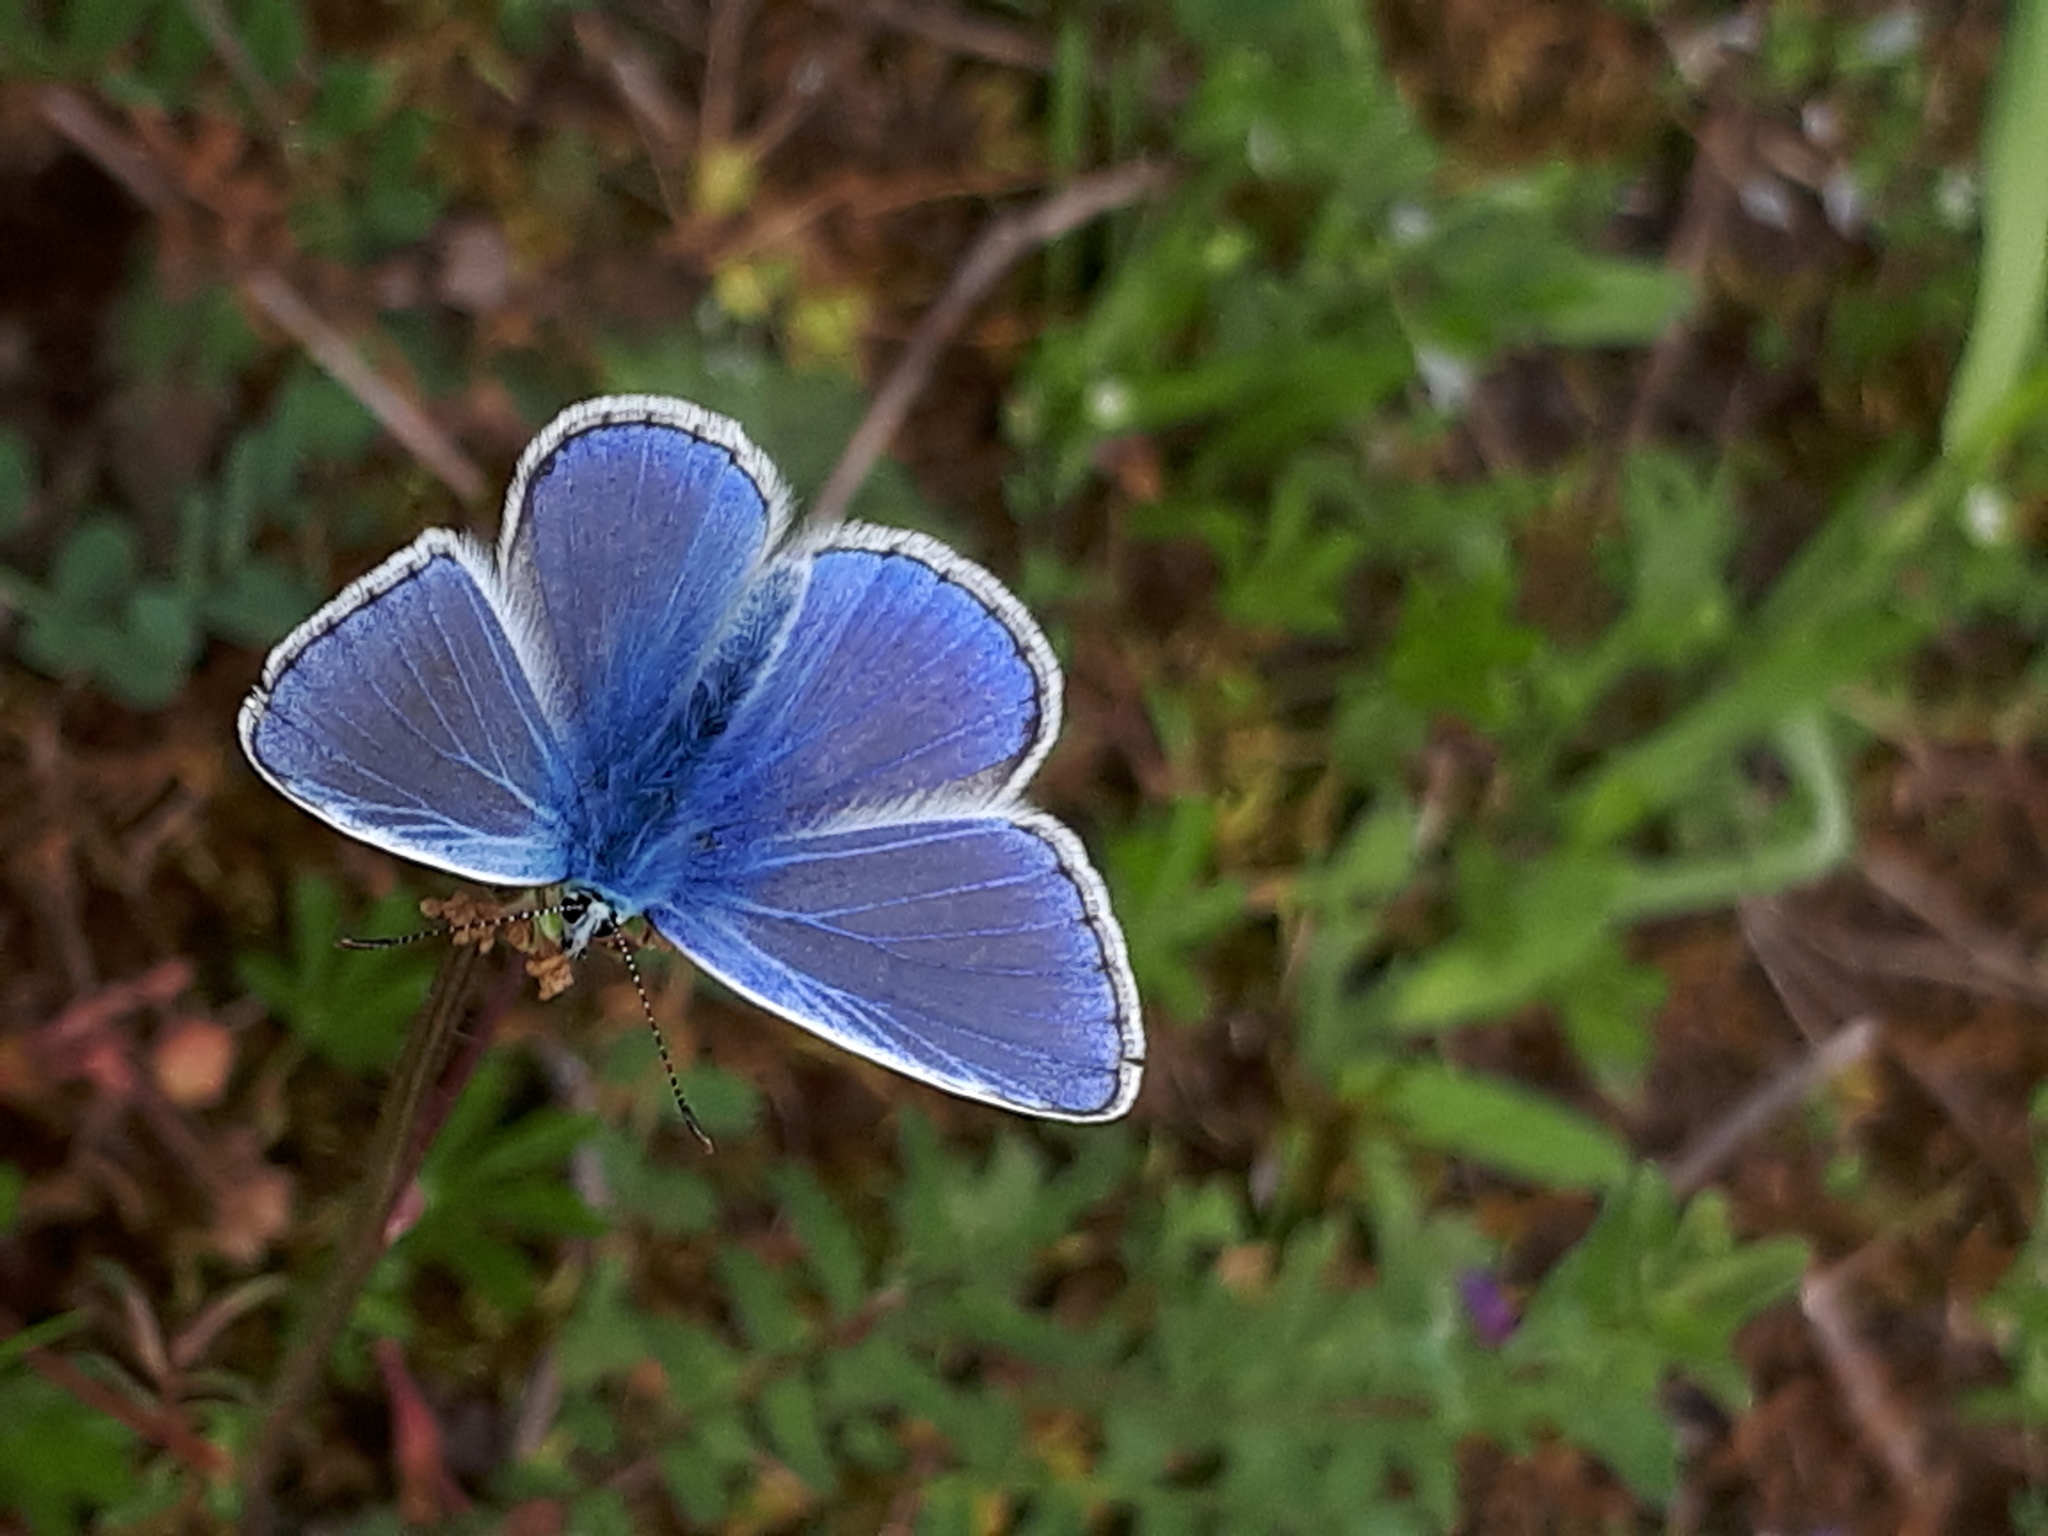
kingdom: Animalia
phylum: Arthropoda
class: Insecta
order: Lepidoptera
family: Lycaenidae
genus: Polyommatus
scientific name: Polyommatus icarus
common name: Common blue
